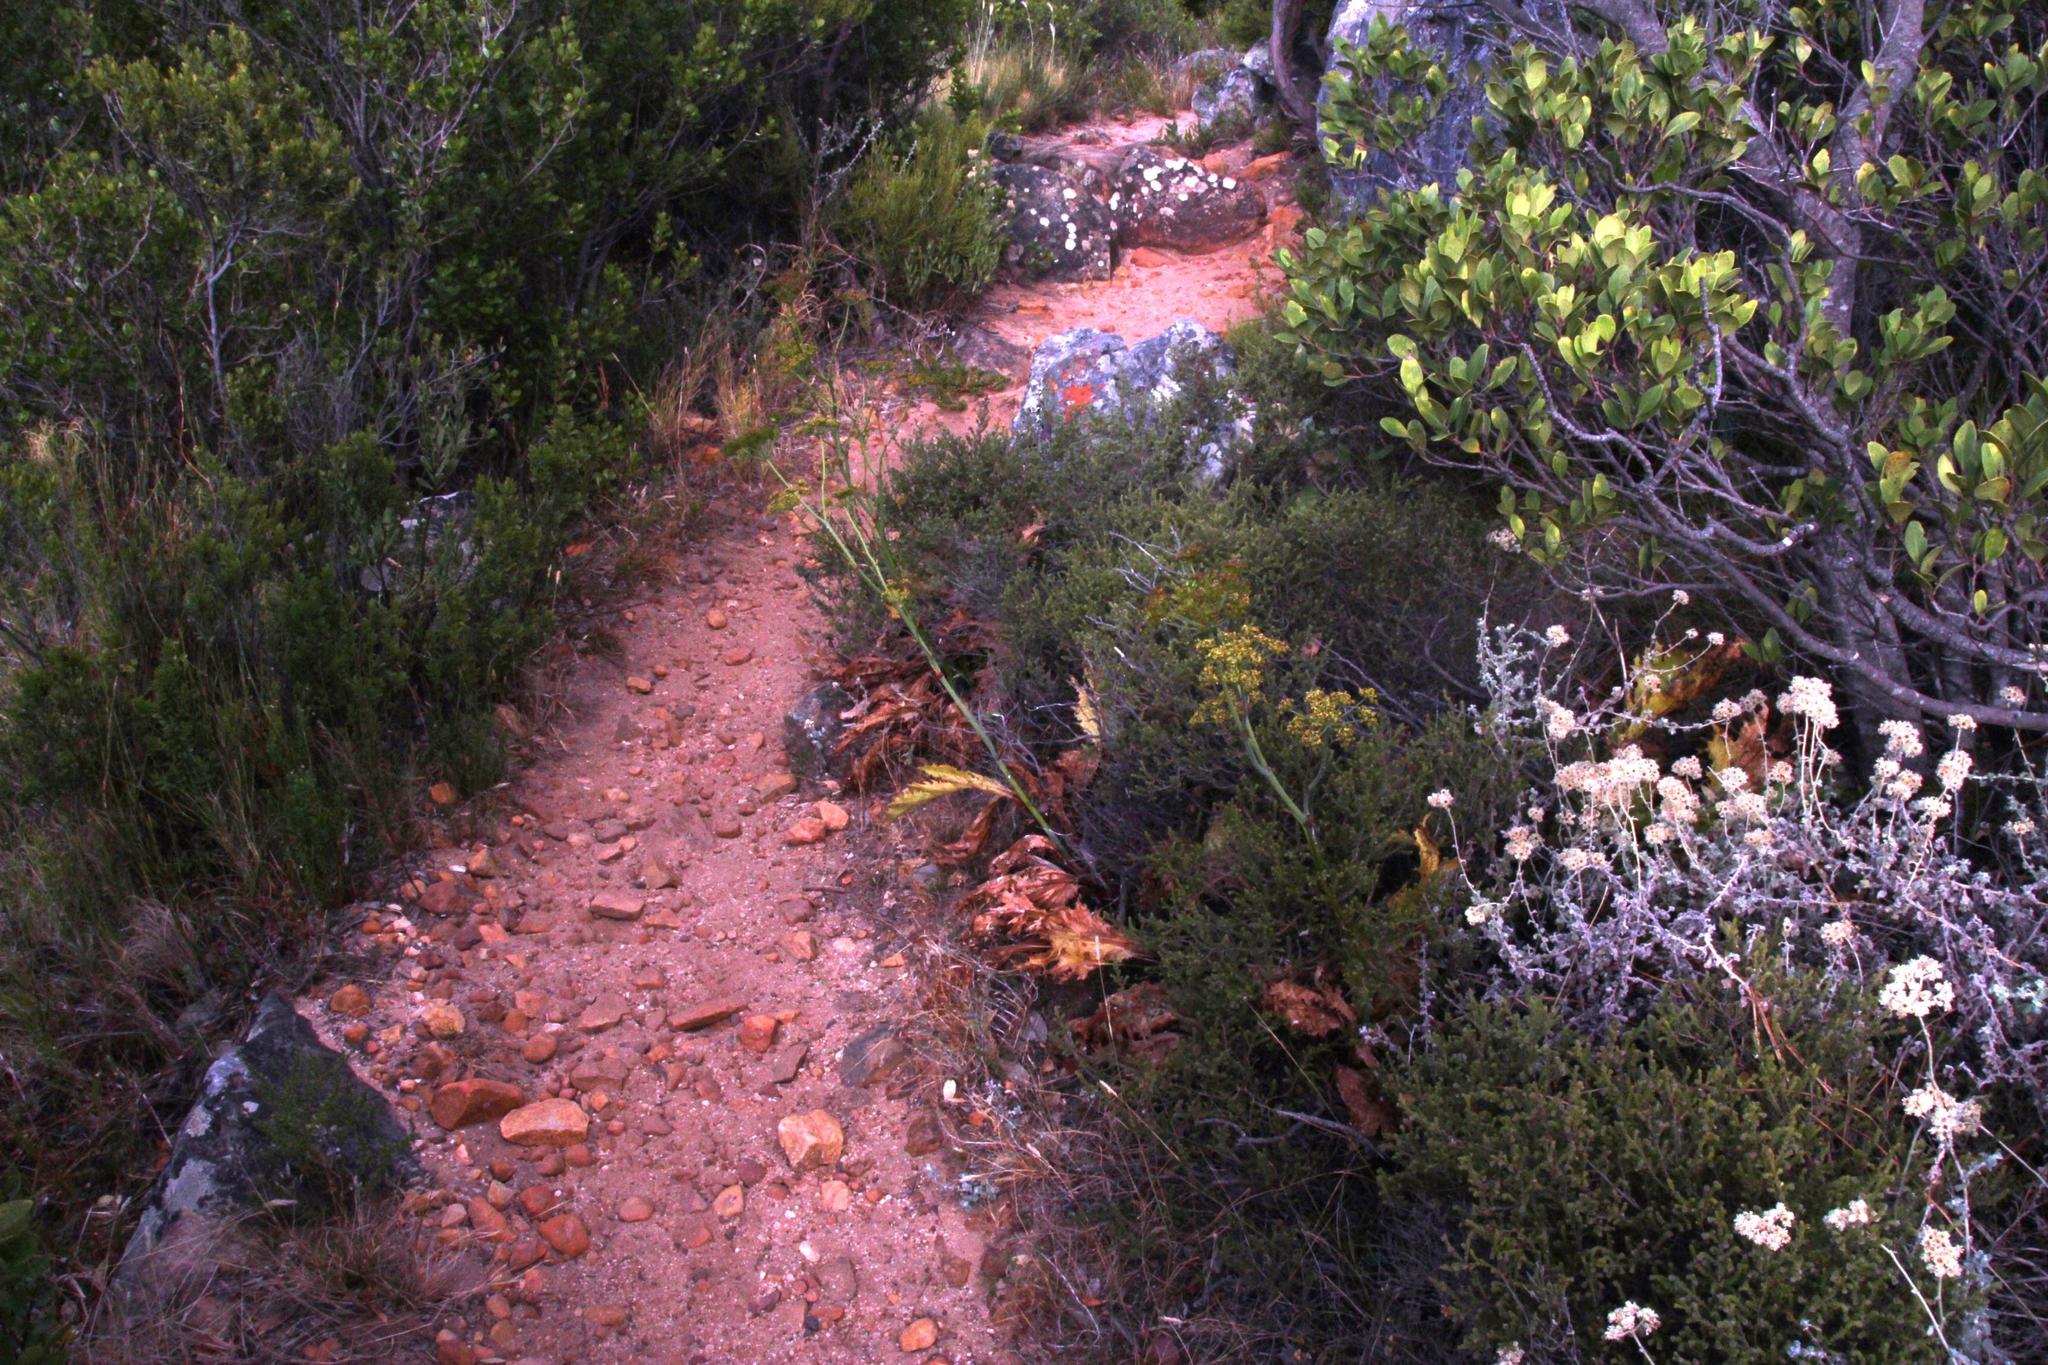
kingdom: Plantae
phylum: Tracheophyta
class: Magnoliopsida
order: Apiales
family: Apiaceae
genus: Lichtensteinia
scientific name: Lichtensteinia lacera
